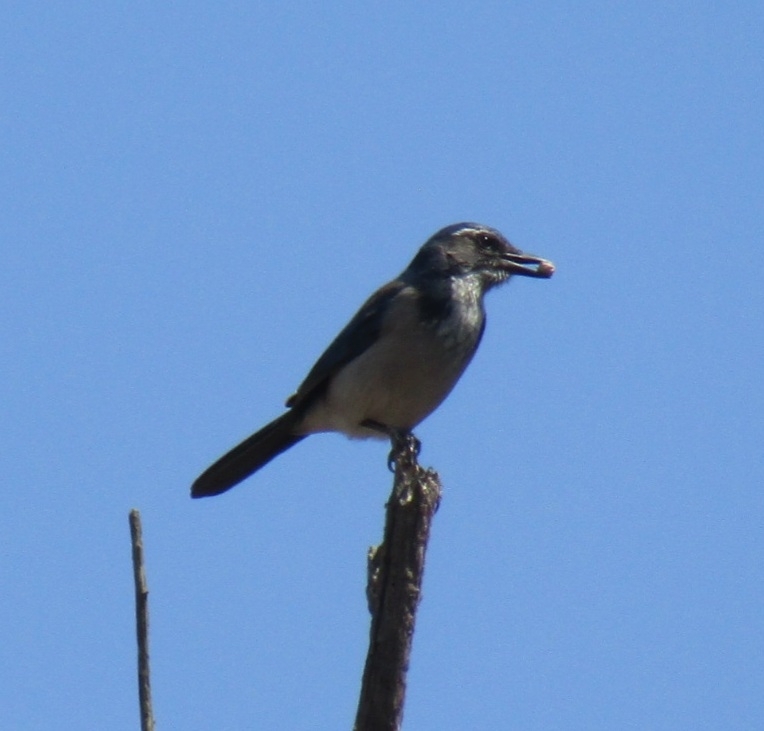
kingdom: Animalia
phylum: Chordata
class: Aves
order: Passeriformes
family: Corvidae
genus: Aphelocoma
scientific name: Aphelocoma californica
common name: California scrub-jay
